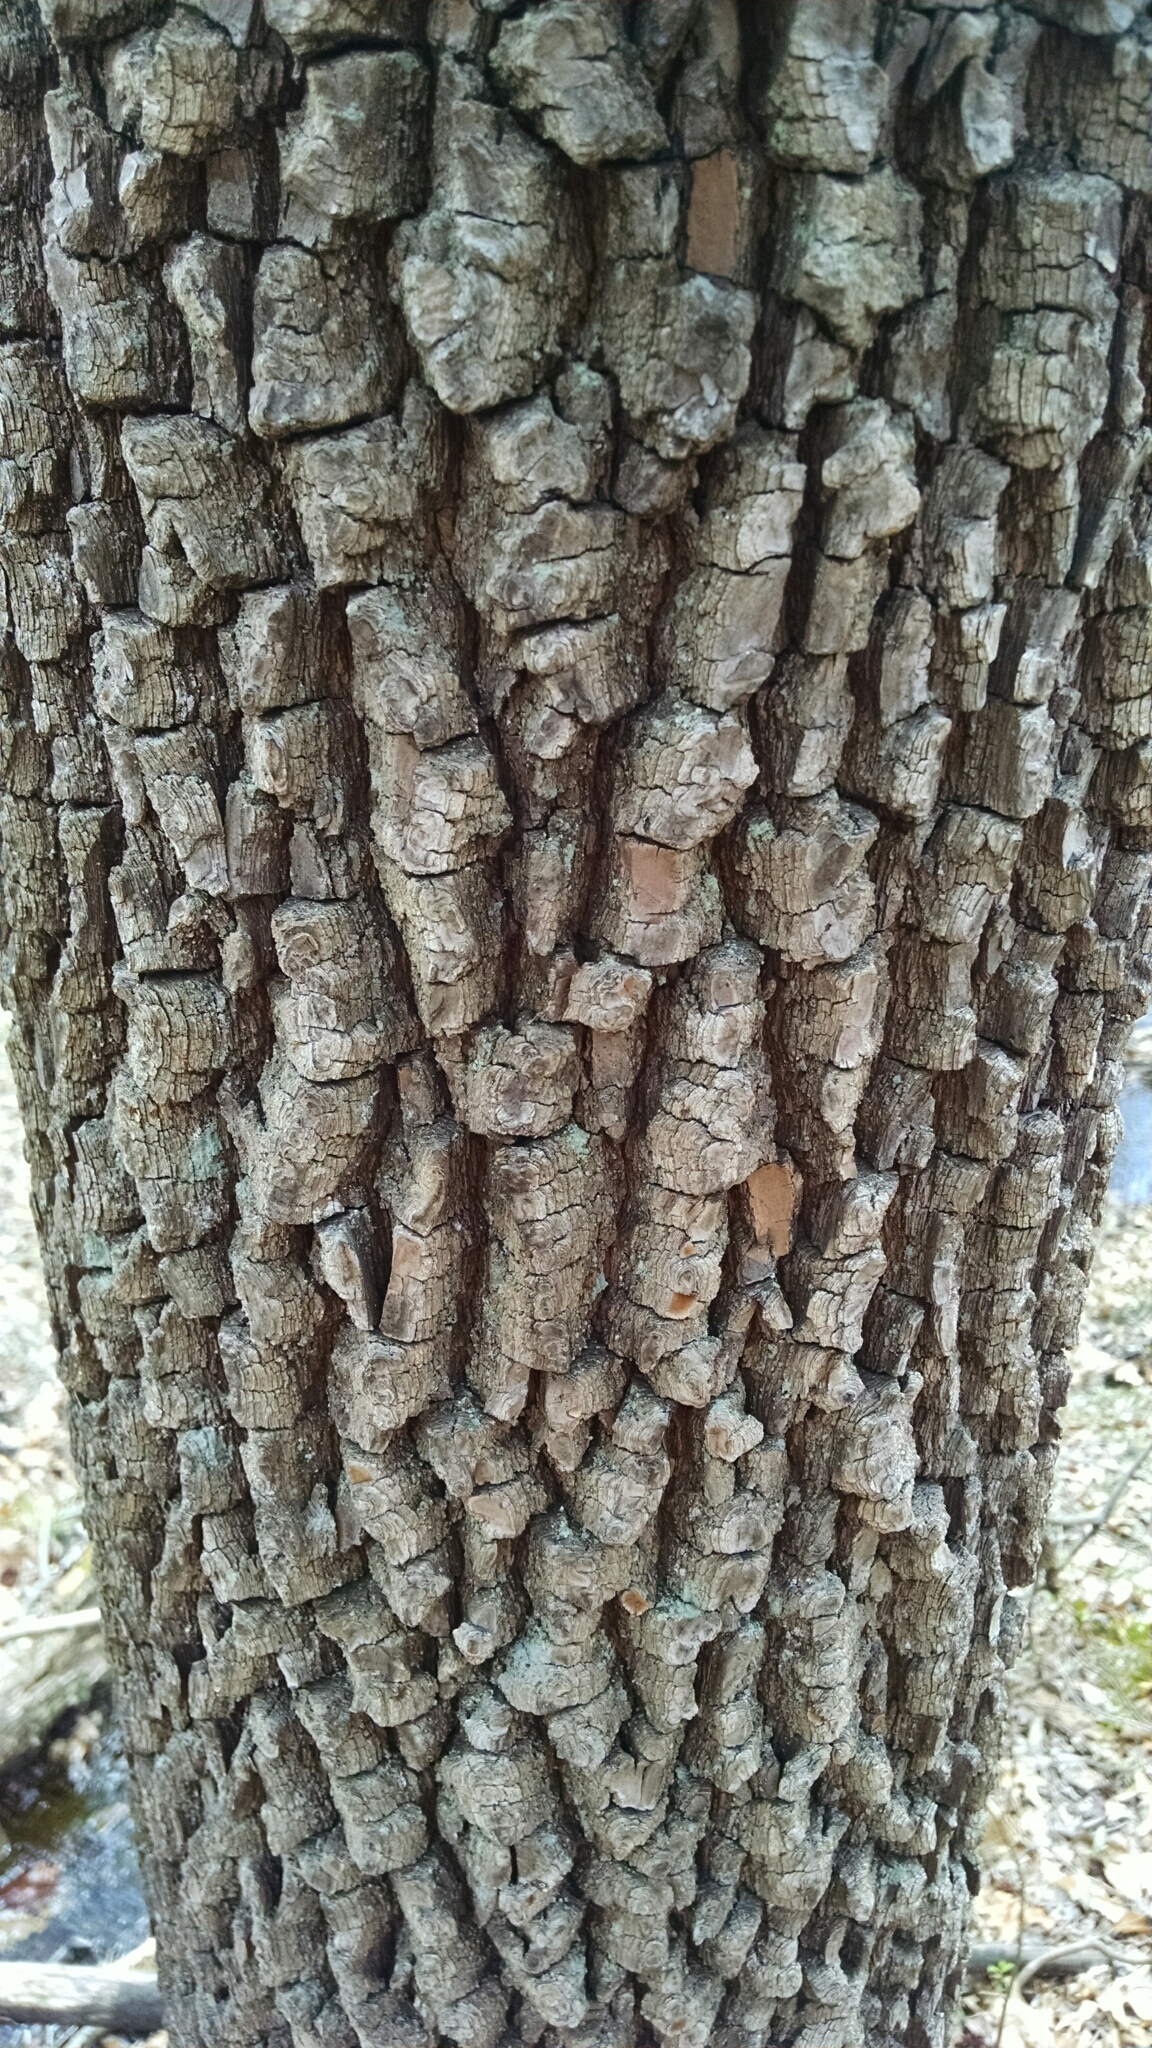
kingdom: Plantae
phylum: Tracheophyta
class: Magnoliopsida
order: Ericales
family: Ebenaceae
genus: Diospyros
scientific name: Diospyros virginiana
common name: Persimmon
